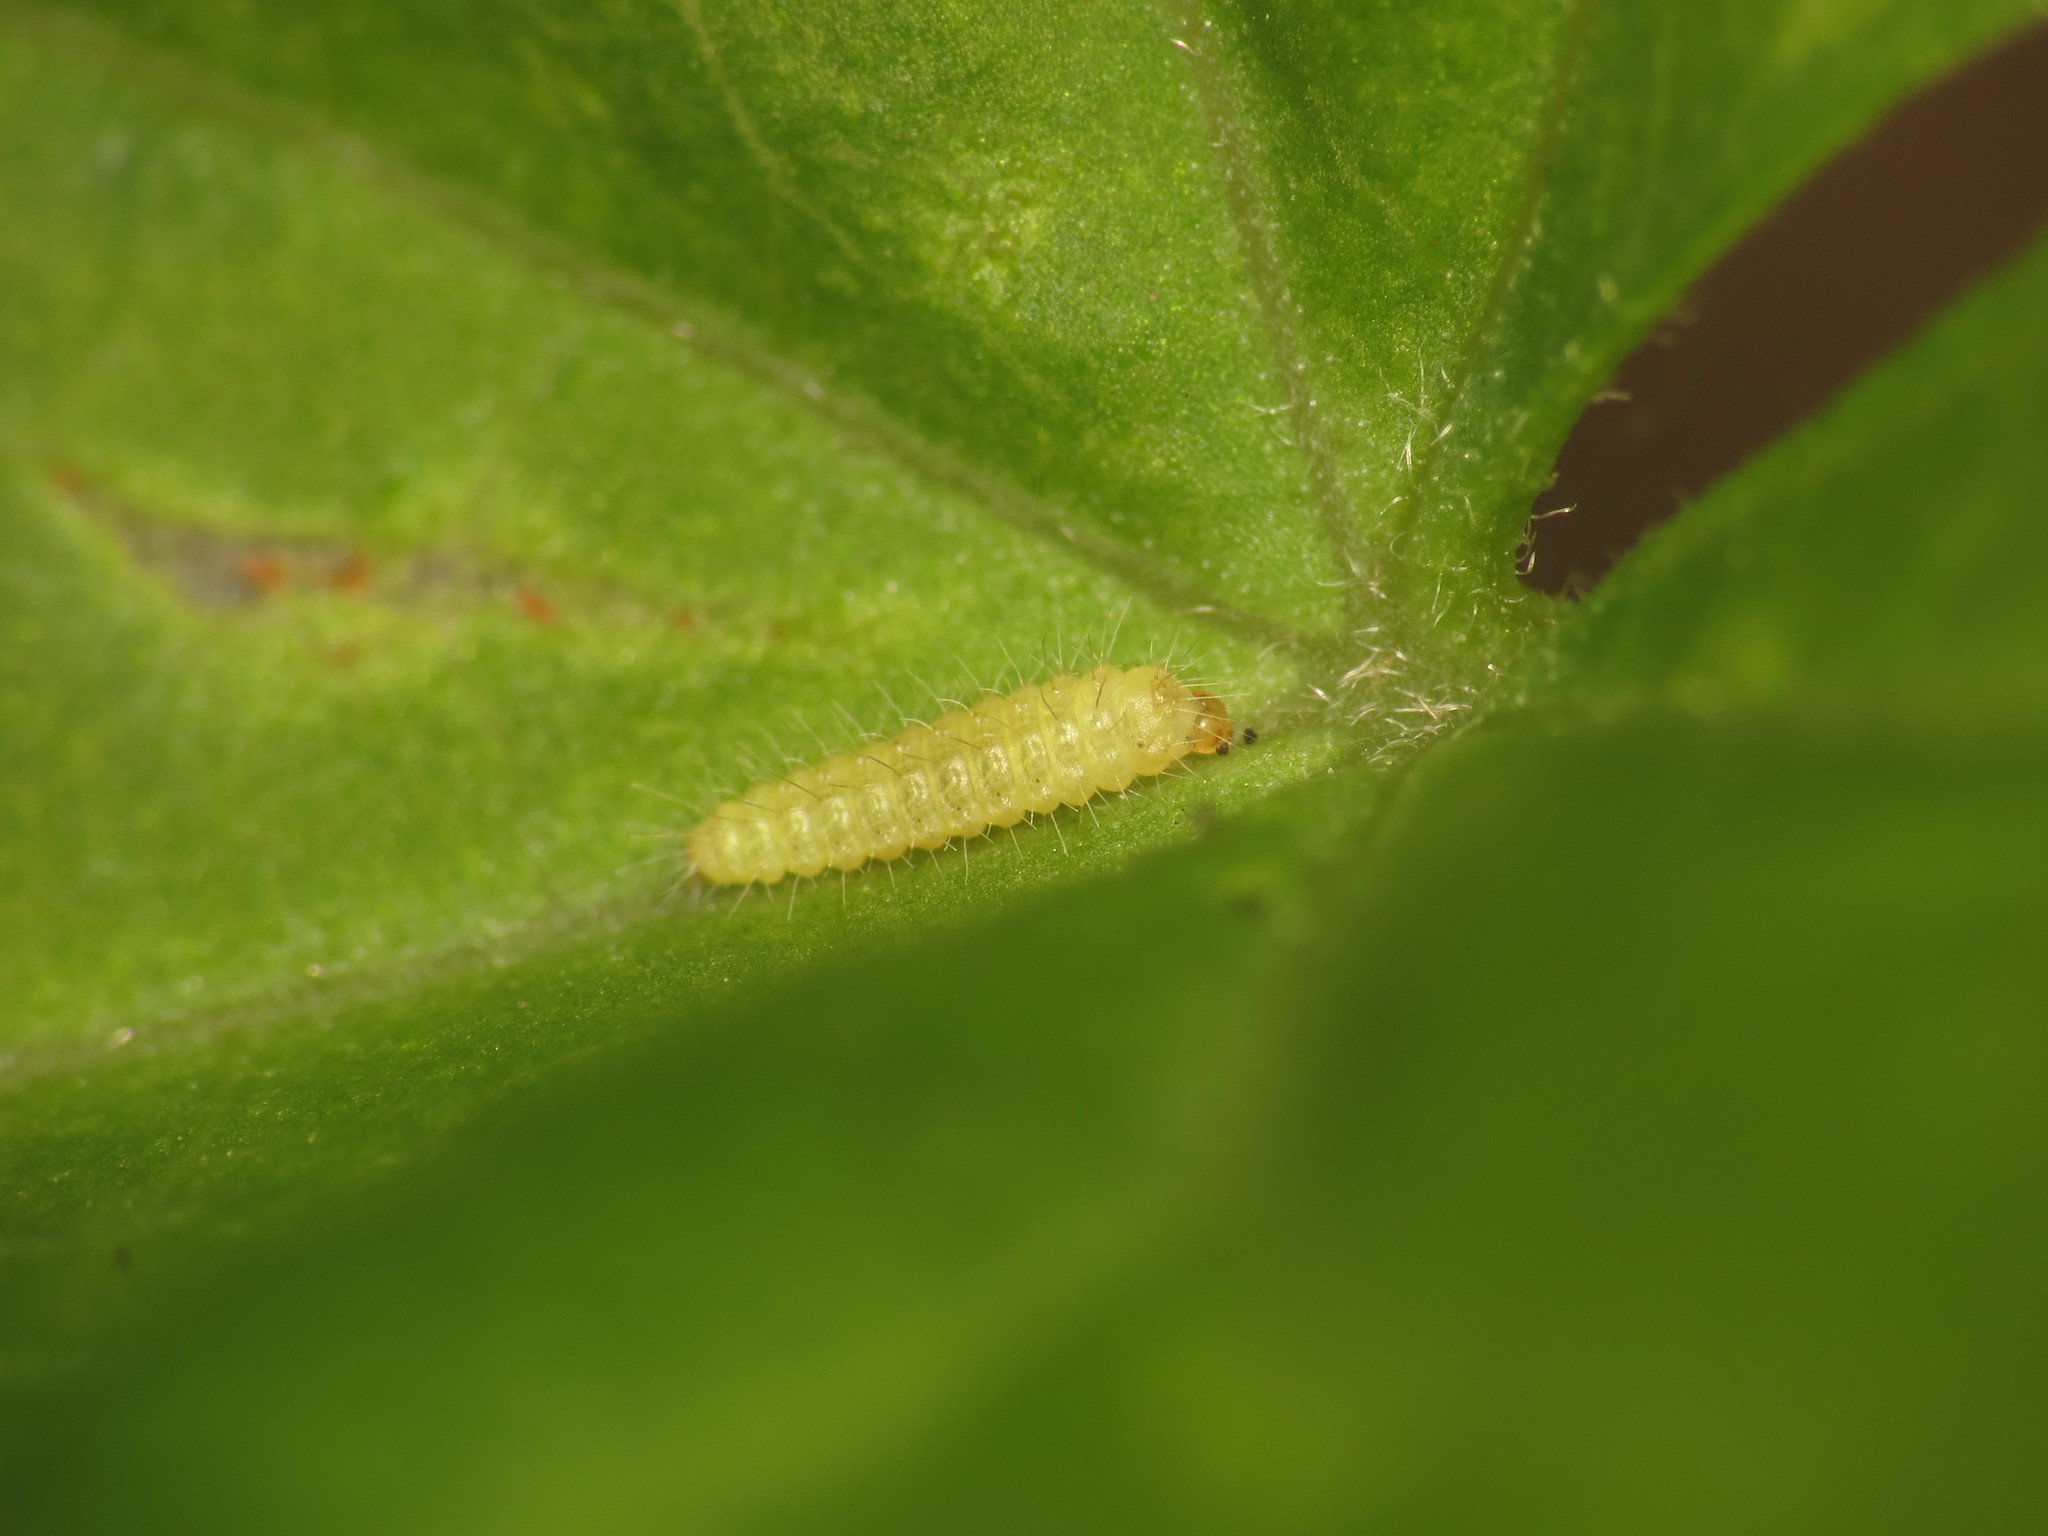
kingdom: Animalia
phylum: Arthropoda
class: Insecta
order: Lepidoptera
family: Pterophoridae
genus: Emmelina
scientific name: Emmelina monodactyla
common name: Common plume
